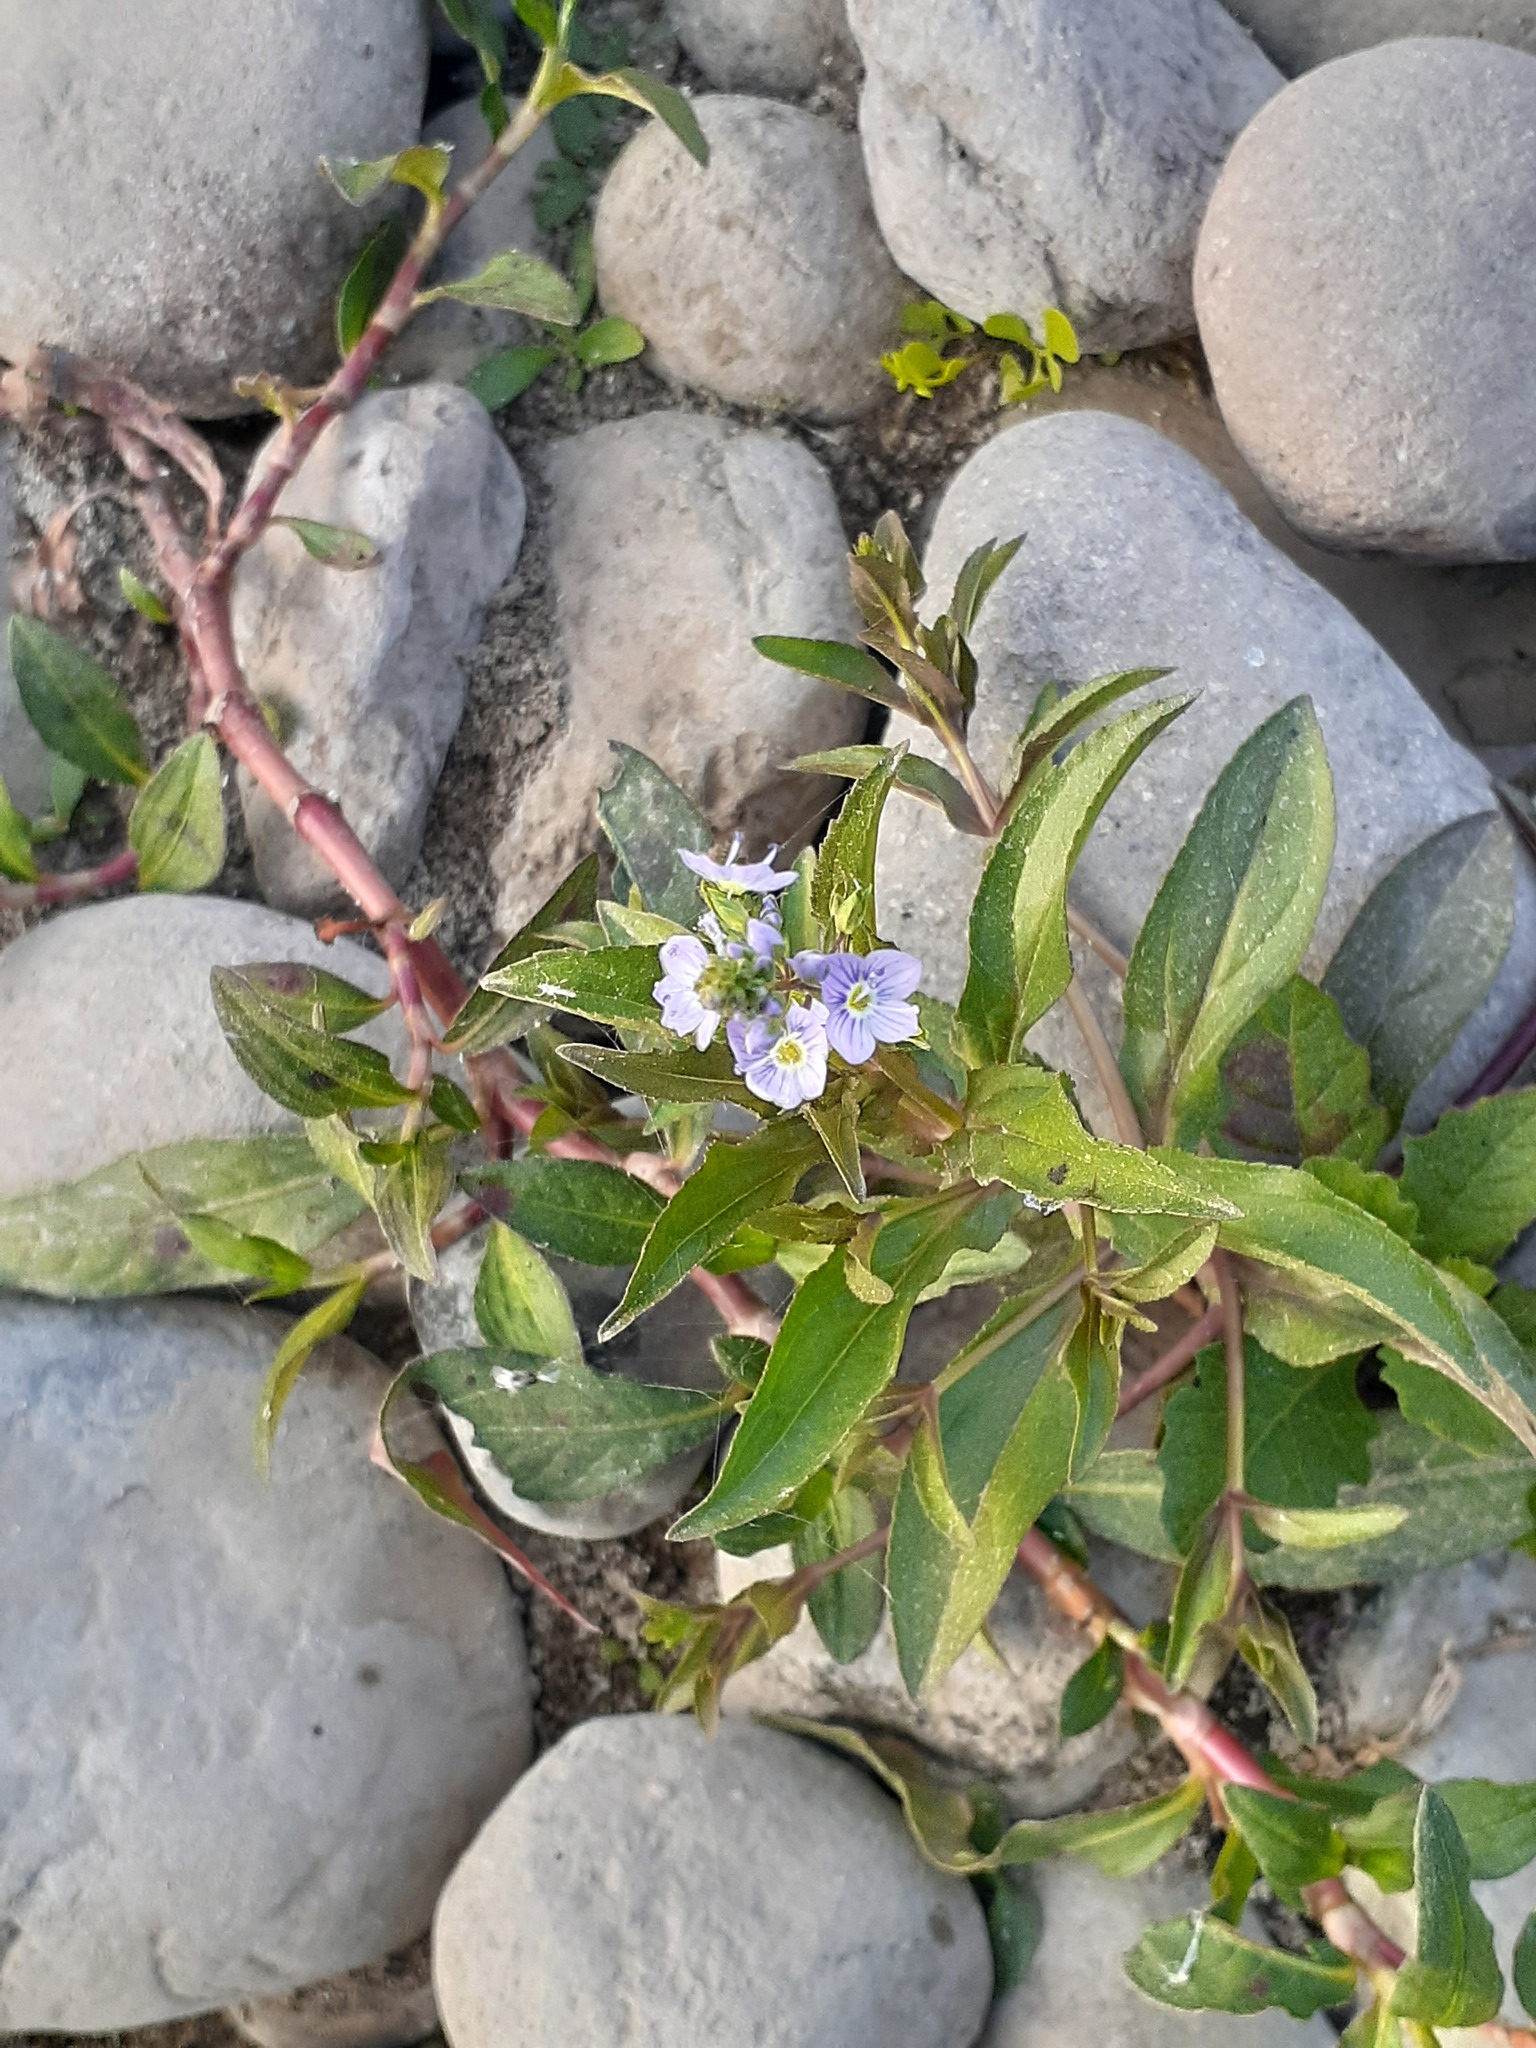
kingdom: Plantae
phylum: Tracheophyta
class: Magnoliopsida
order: Lamiales
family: Plantaginaceae
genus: Veronica
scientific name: Veronica anagallis-aquatica
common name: Water speedwell
